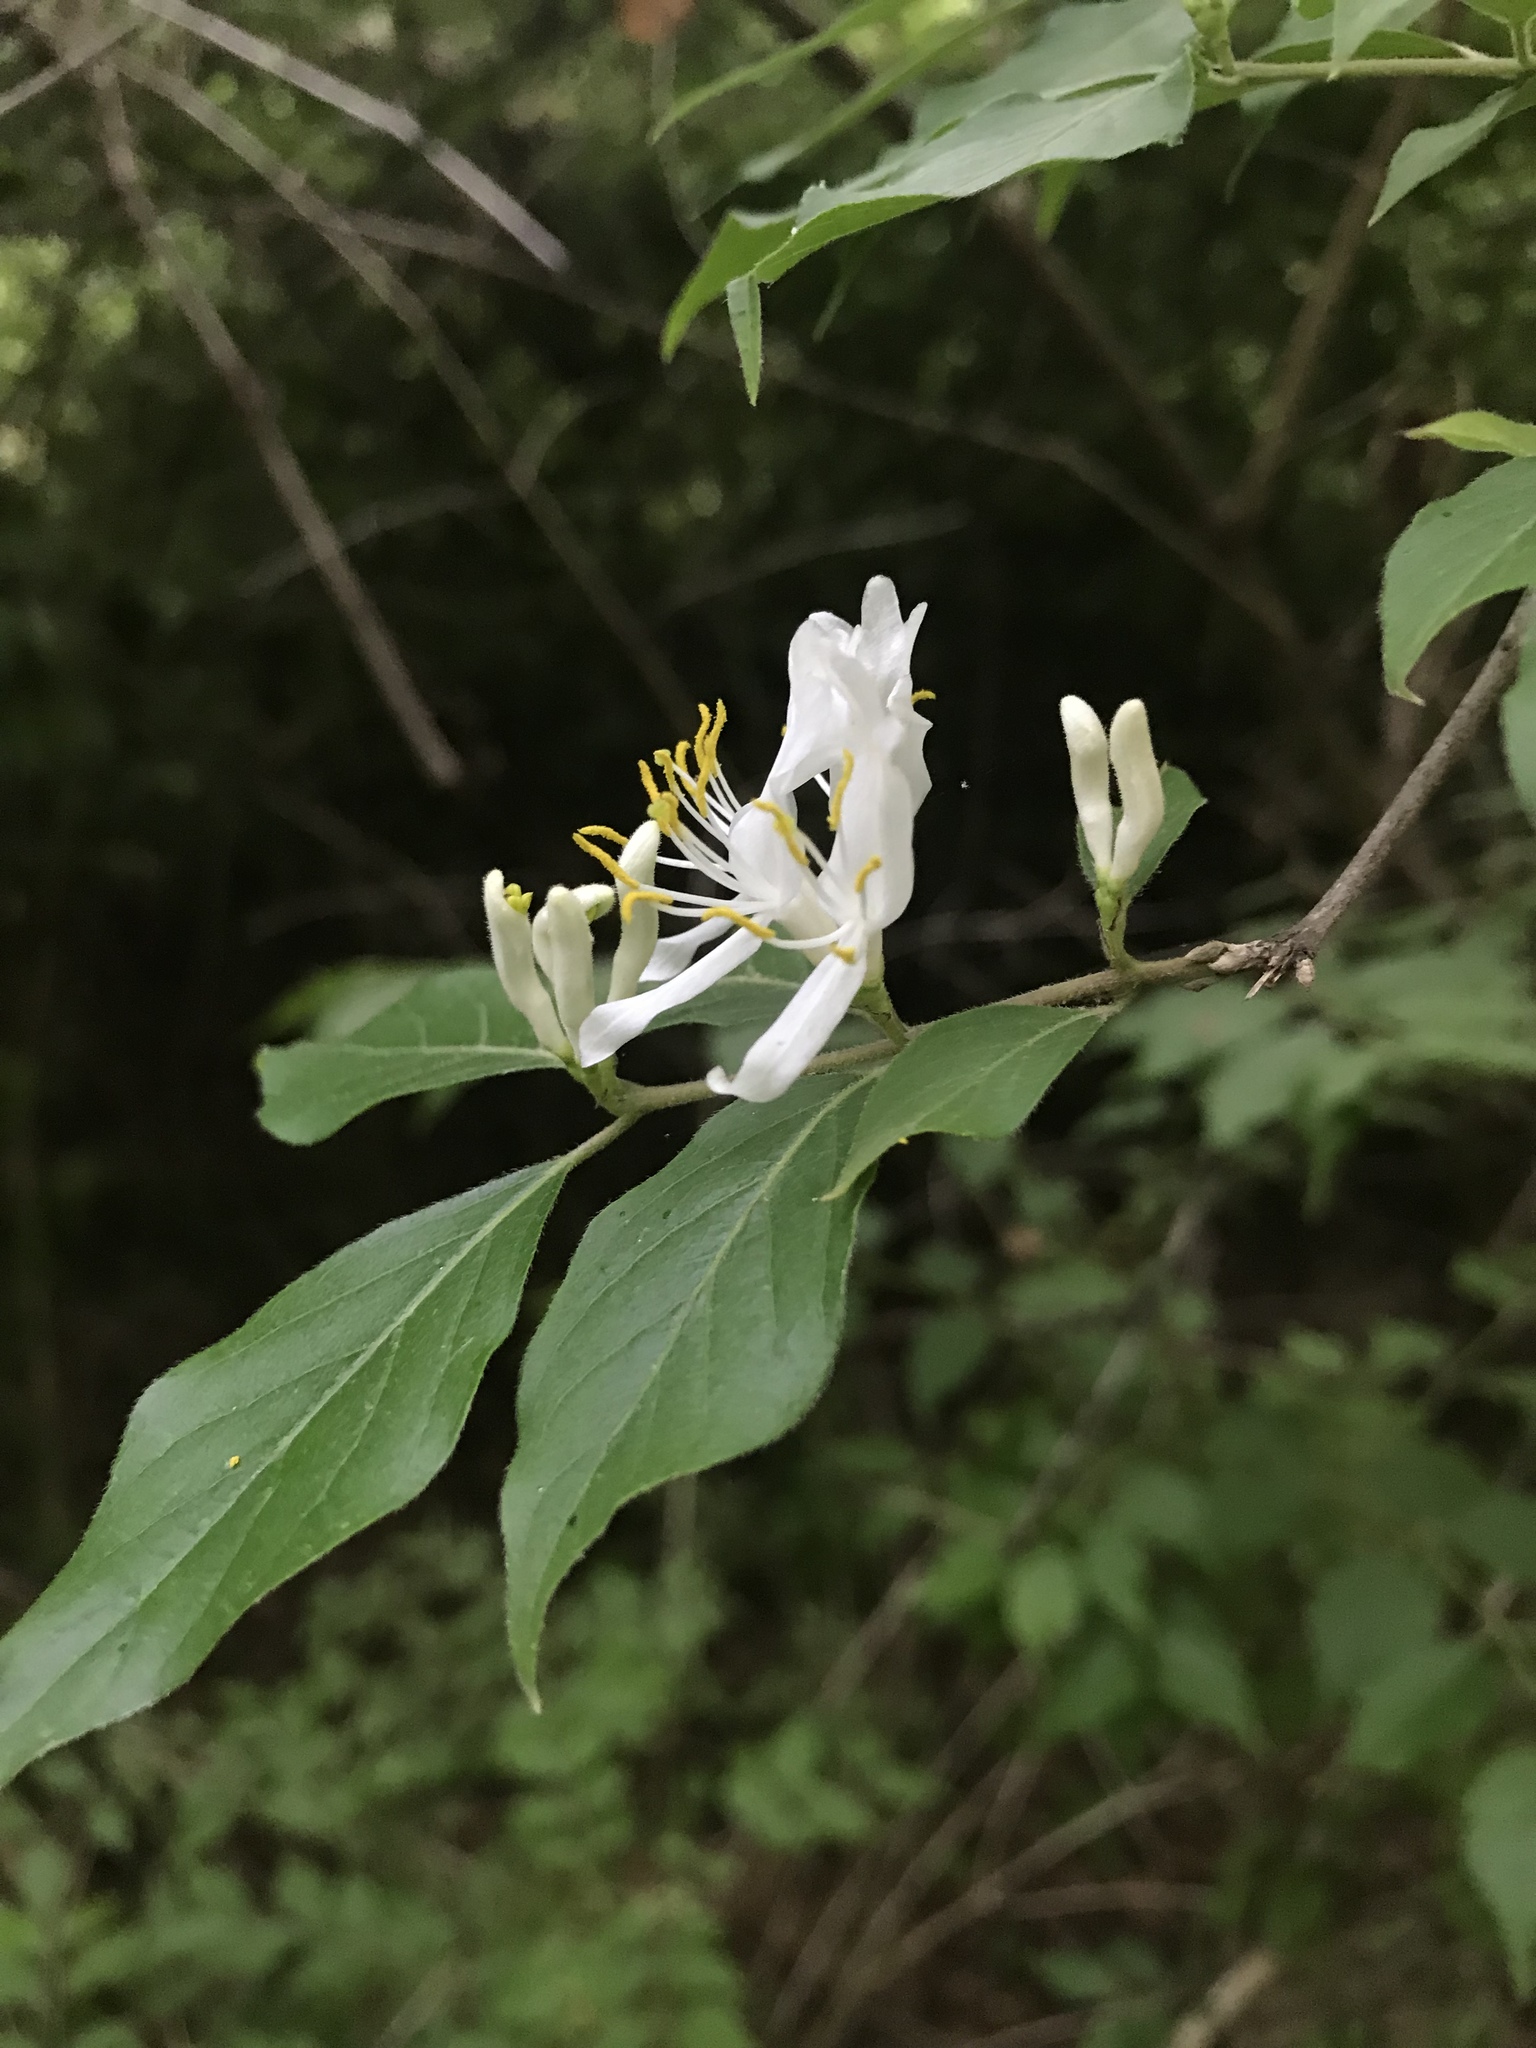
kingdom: Plantae
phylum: Tracheophyta
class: Magnoliopsida
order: Dipsacales
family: Caprifoliaceae
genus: Lonicera
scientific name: Lonicera maackii
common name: Amur honeysuckle
